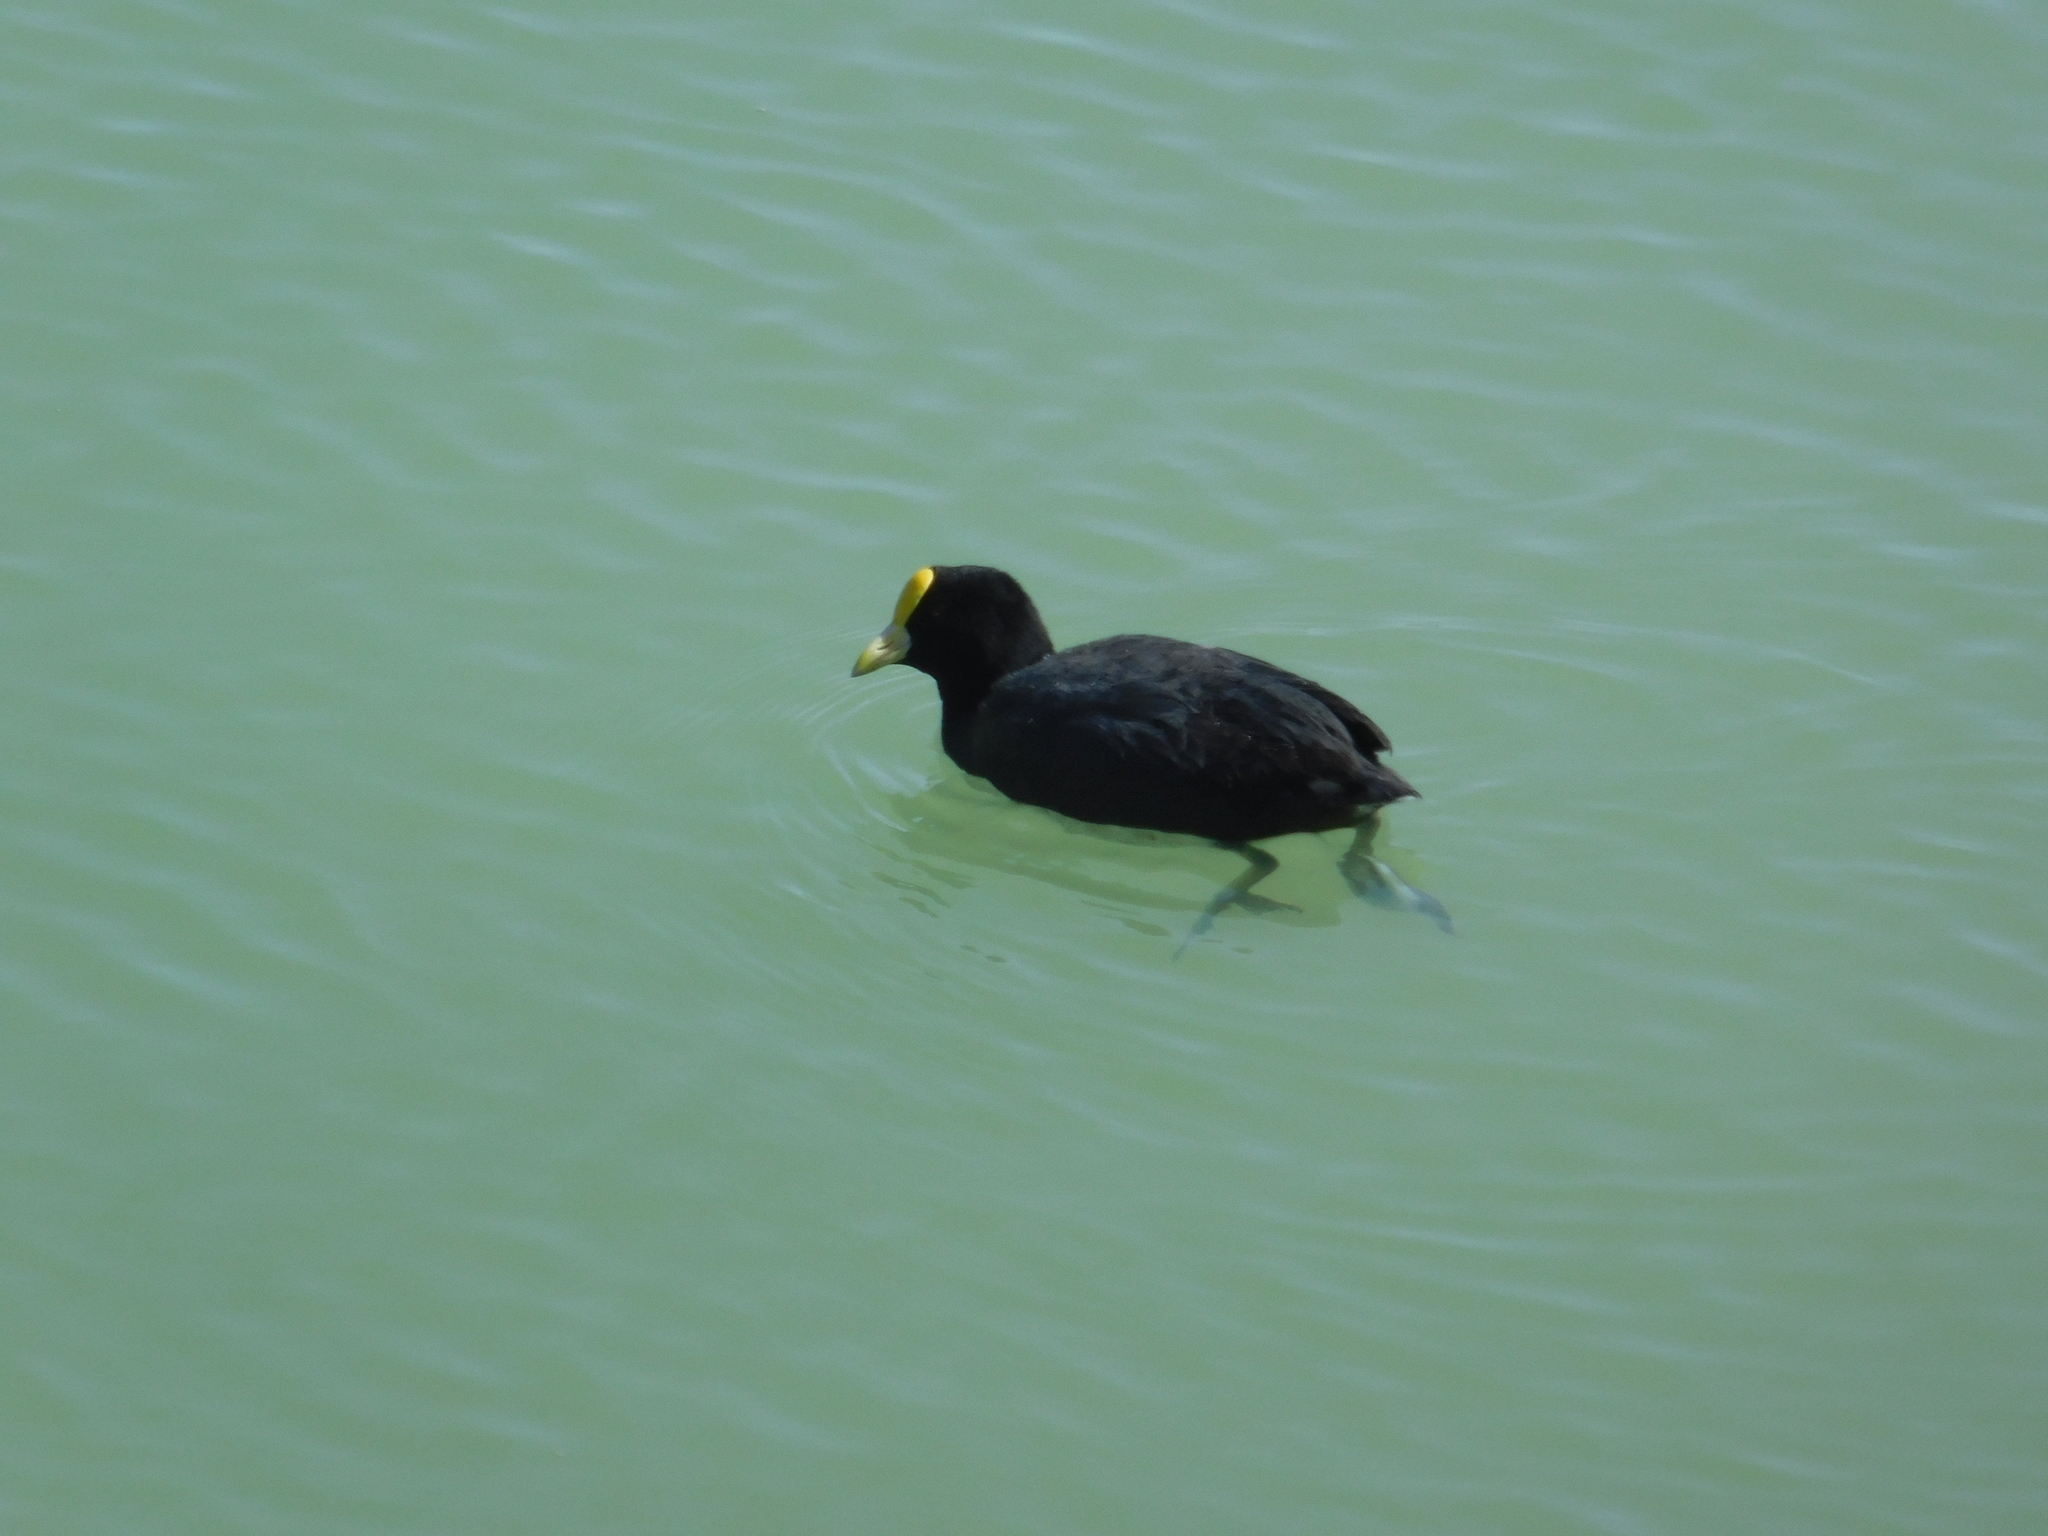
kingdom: Animalia
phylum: Chordata
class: Aves
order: Gruiformes
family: Rallidae
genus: Fulica
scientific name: Fulica leucoptera
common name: White-winged coot
